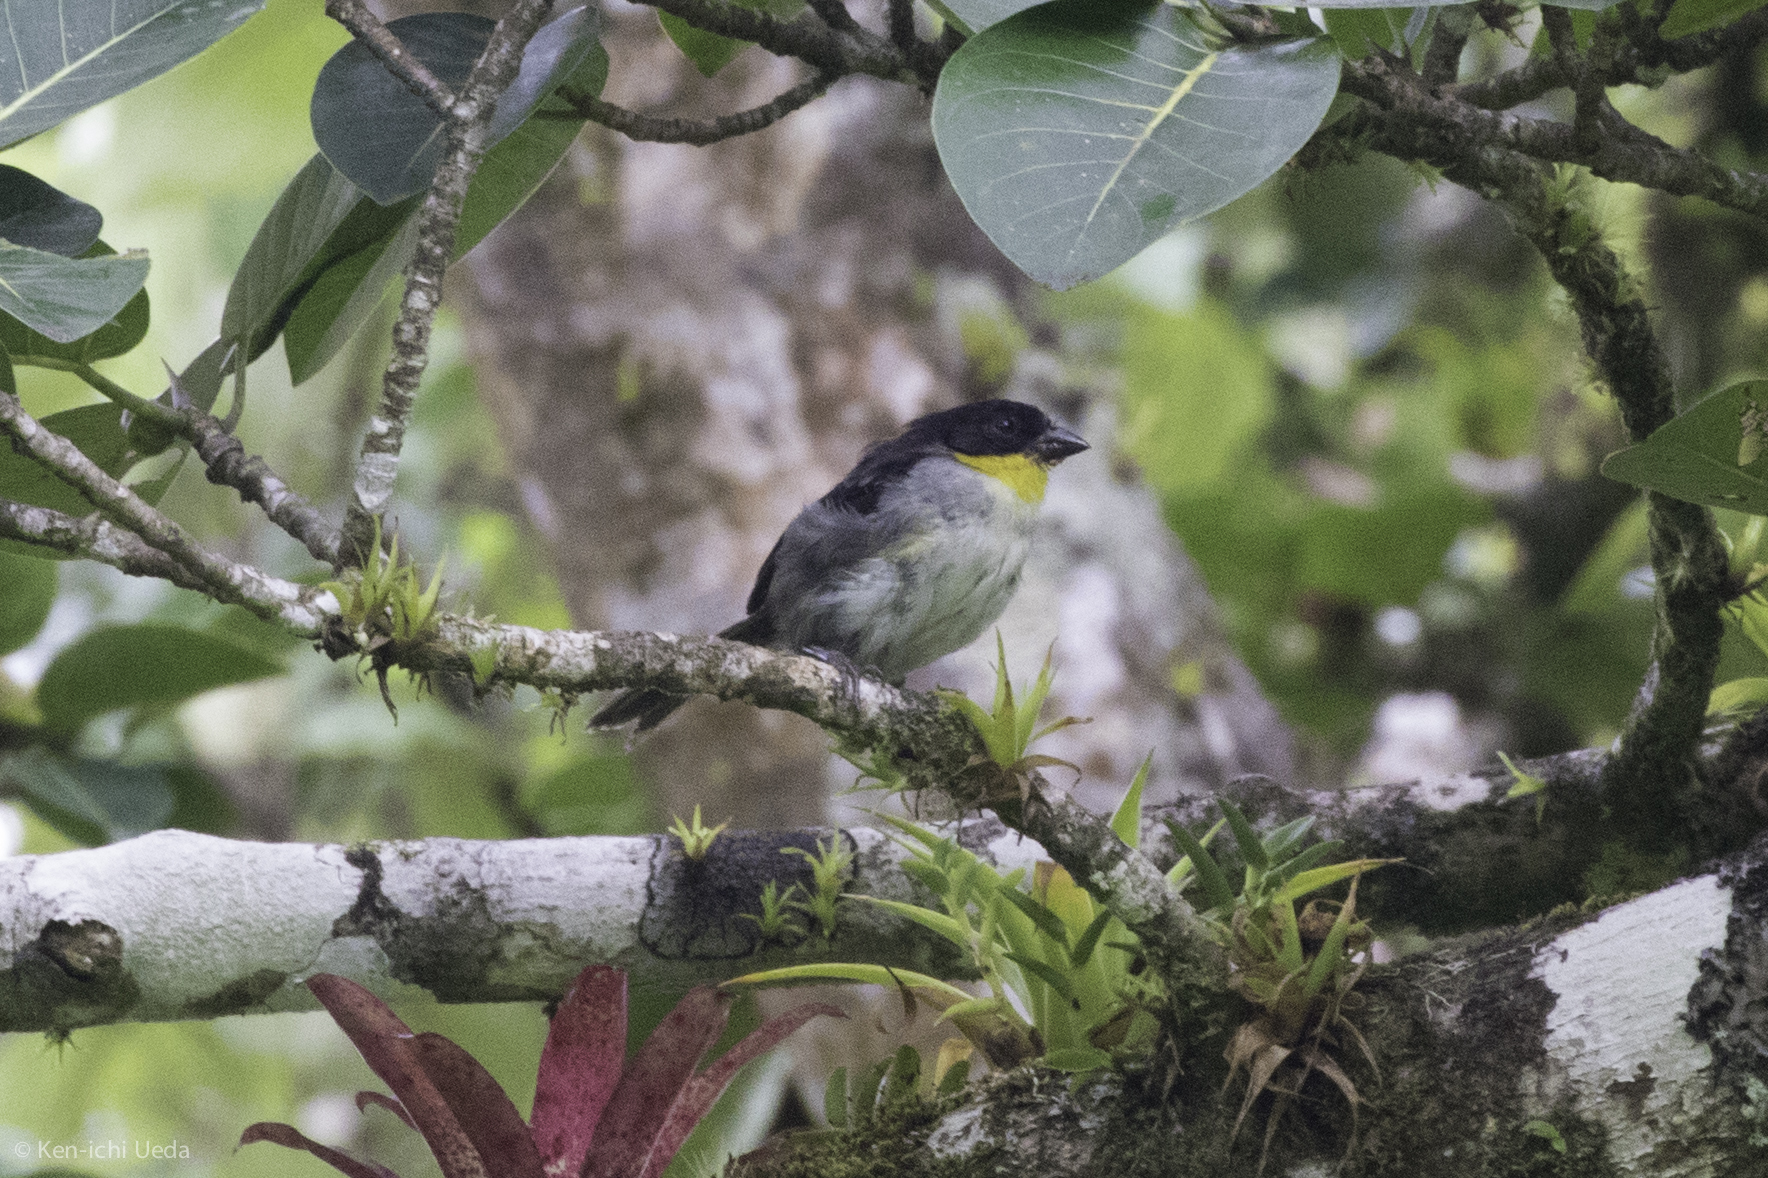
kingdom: Animalia
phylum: Chordata
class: Aves
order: Passeriformes
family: Passerellidae
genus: Atlapetes
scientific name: Atlapetes albinucha
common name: White-naped brush-finch
